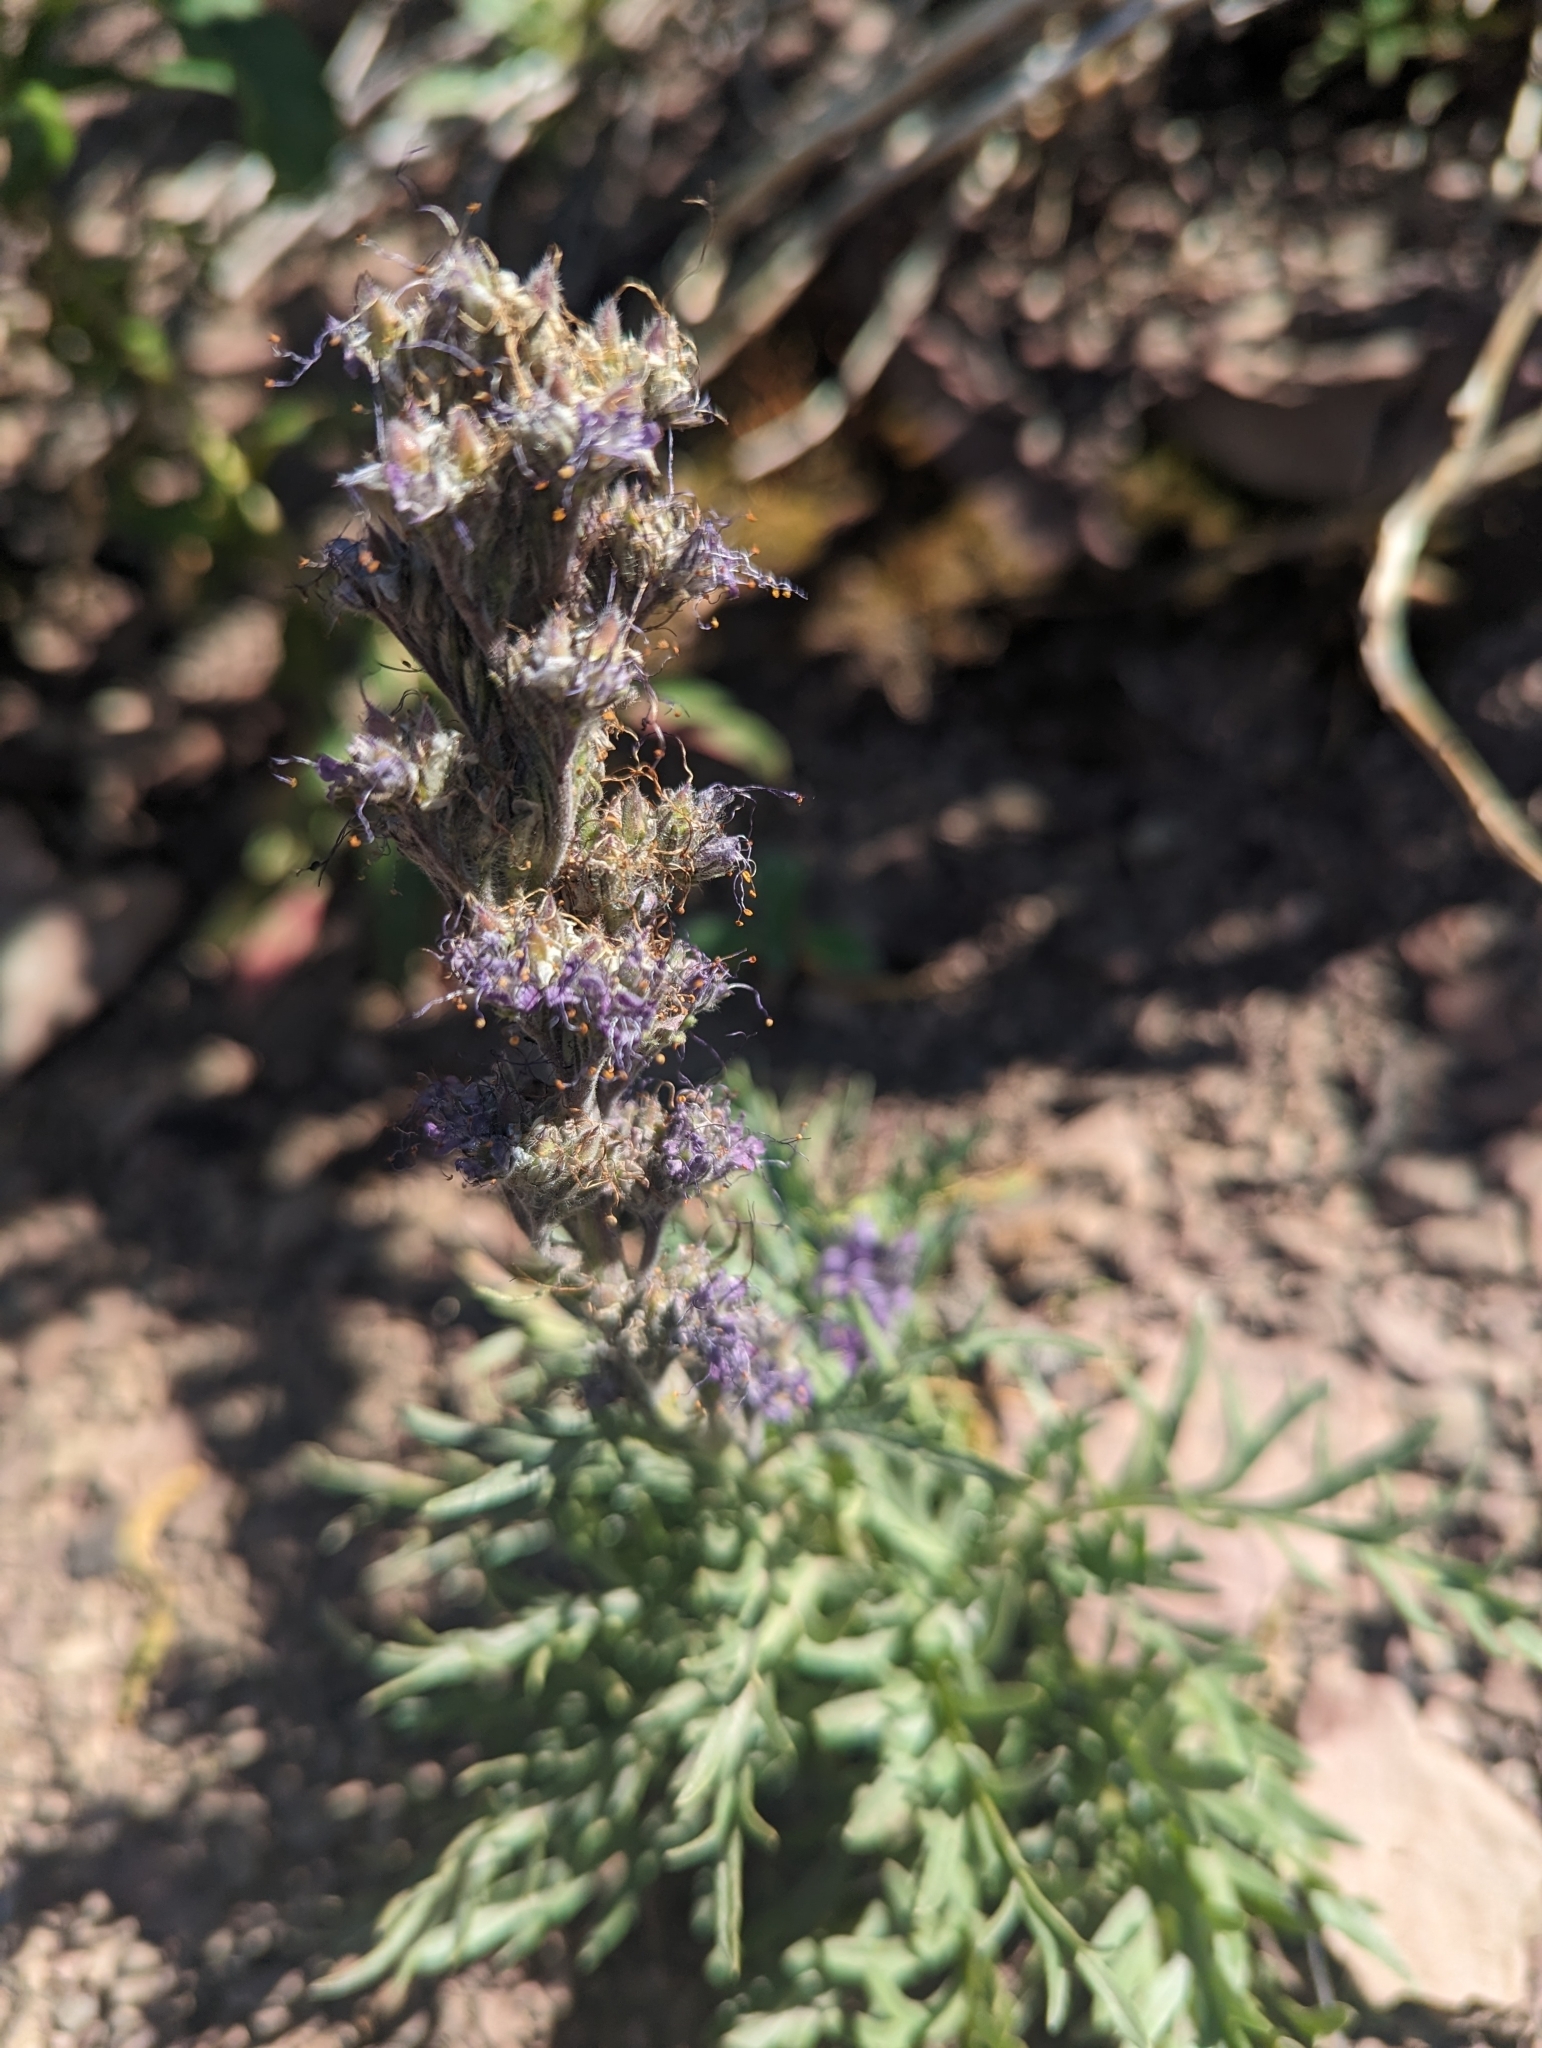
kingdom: Plantae
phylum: Tracheophyta
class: Magnoliopsida
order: Boraginales
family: Hydrophyllaceae
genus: Phacelia
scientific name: Phacelia sericea
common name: Silky phacelia
